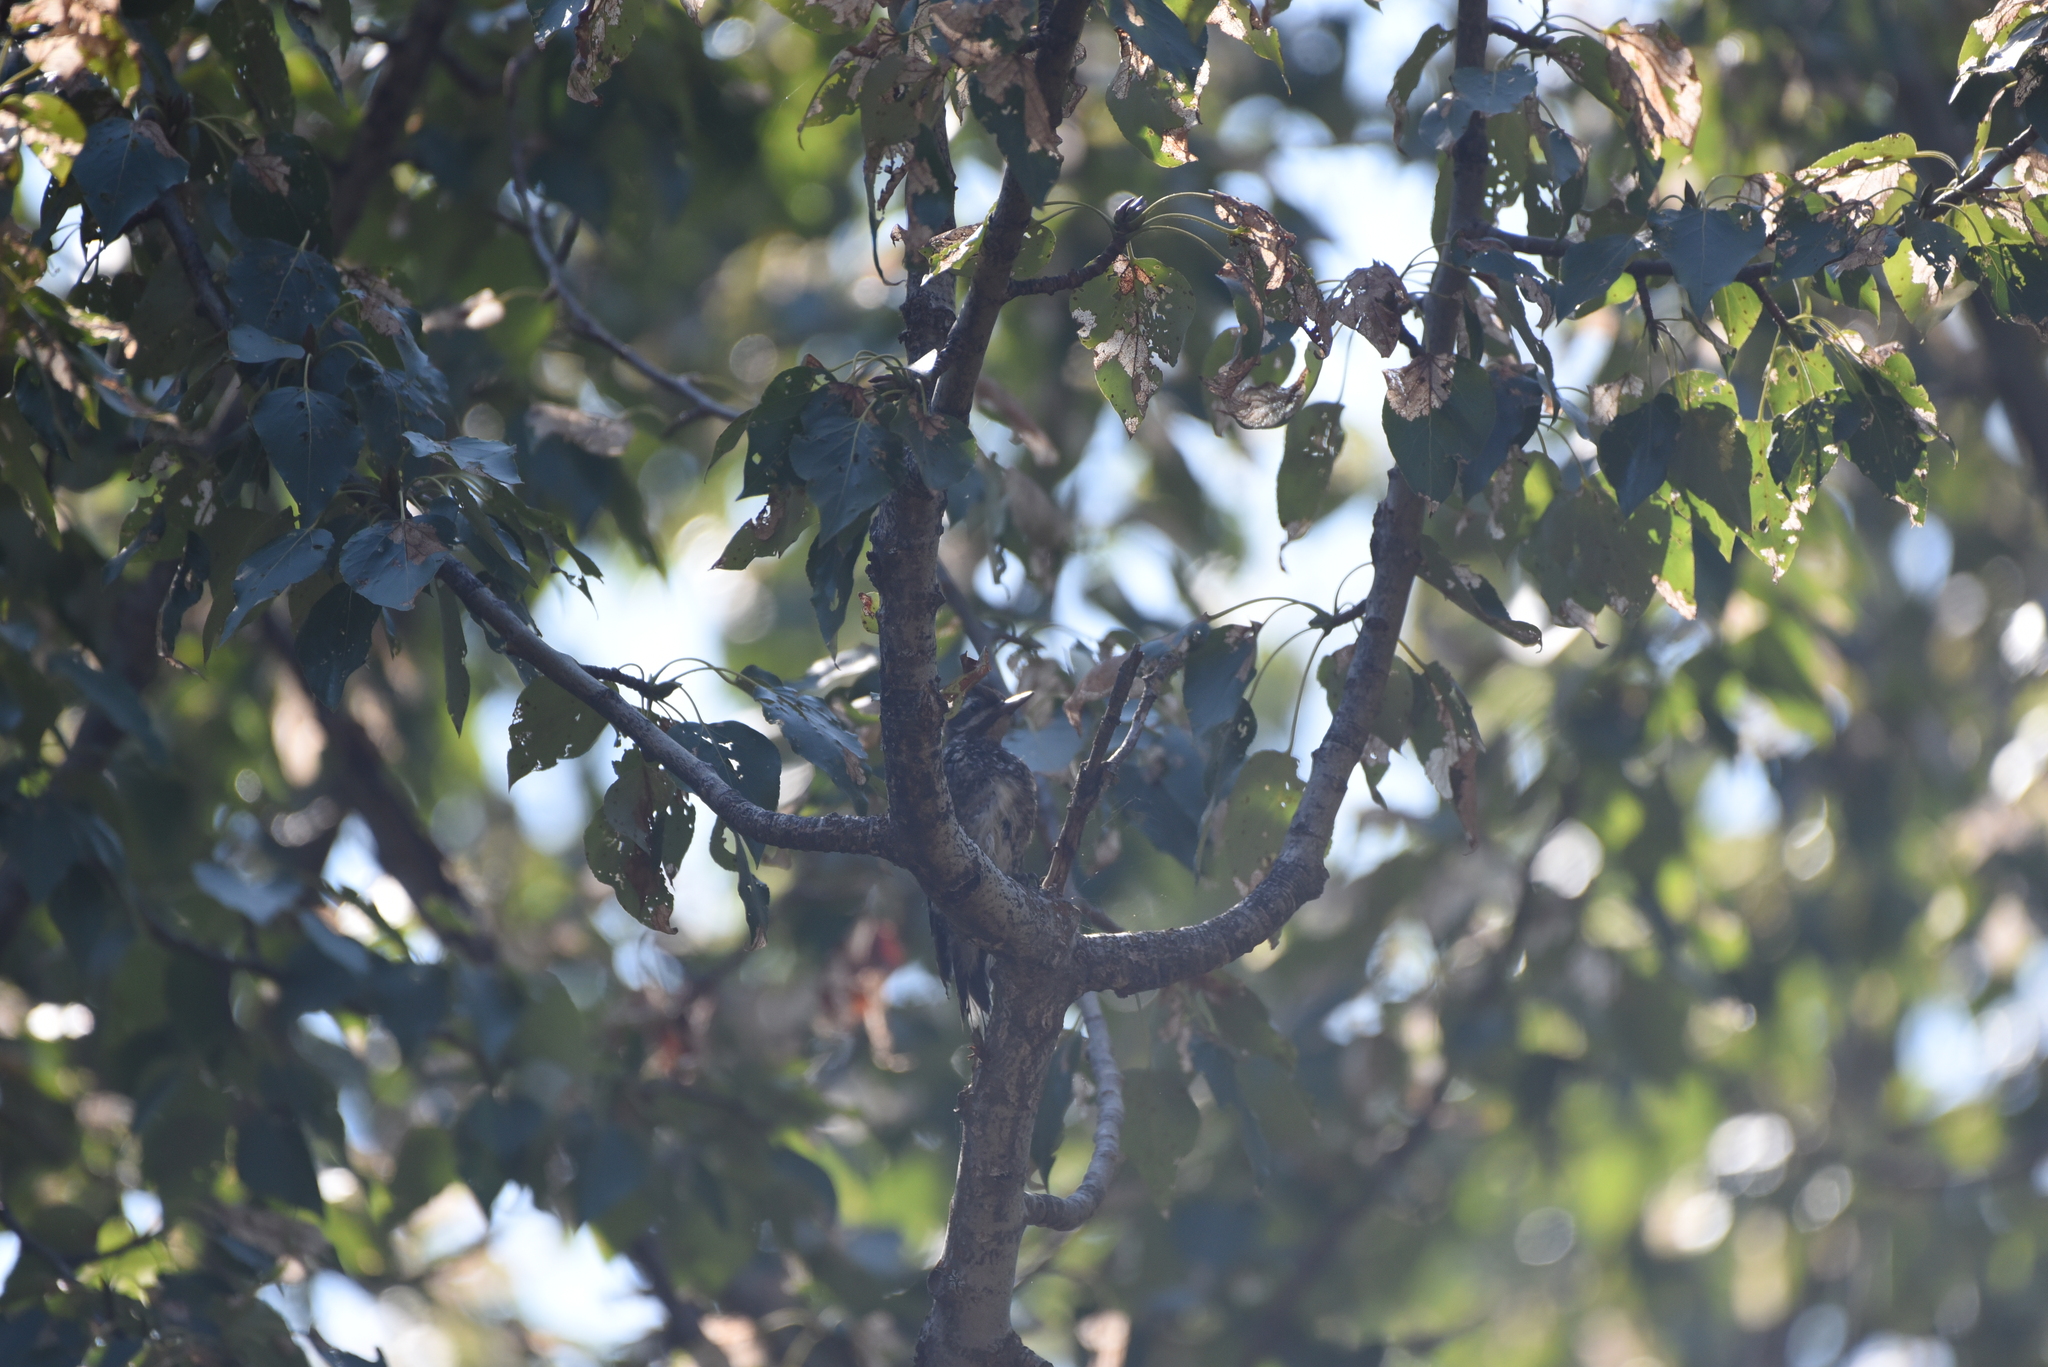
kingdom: Animalia
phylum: Chordata
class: Aves
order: Piciformes
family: Picidae
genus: Sphyrapicus
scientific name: Sphyrapicus varius
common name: Yellow-bellied sapsucker
